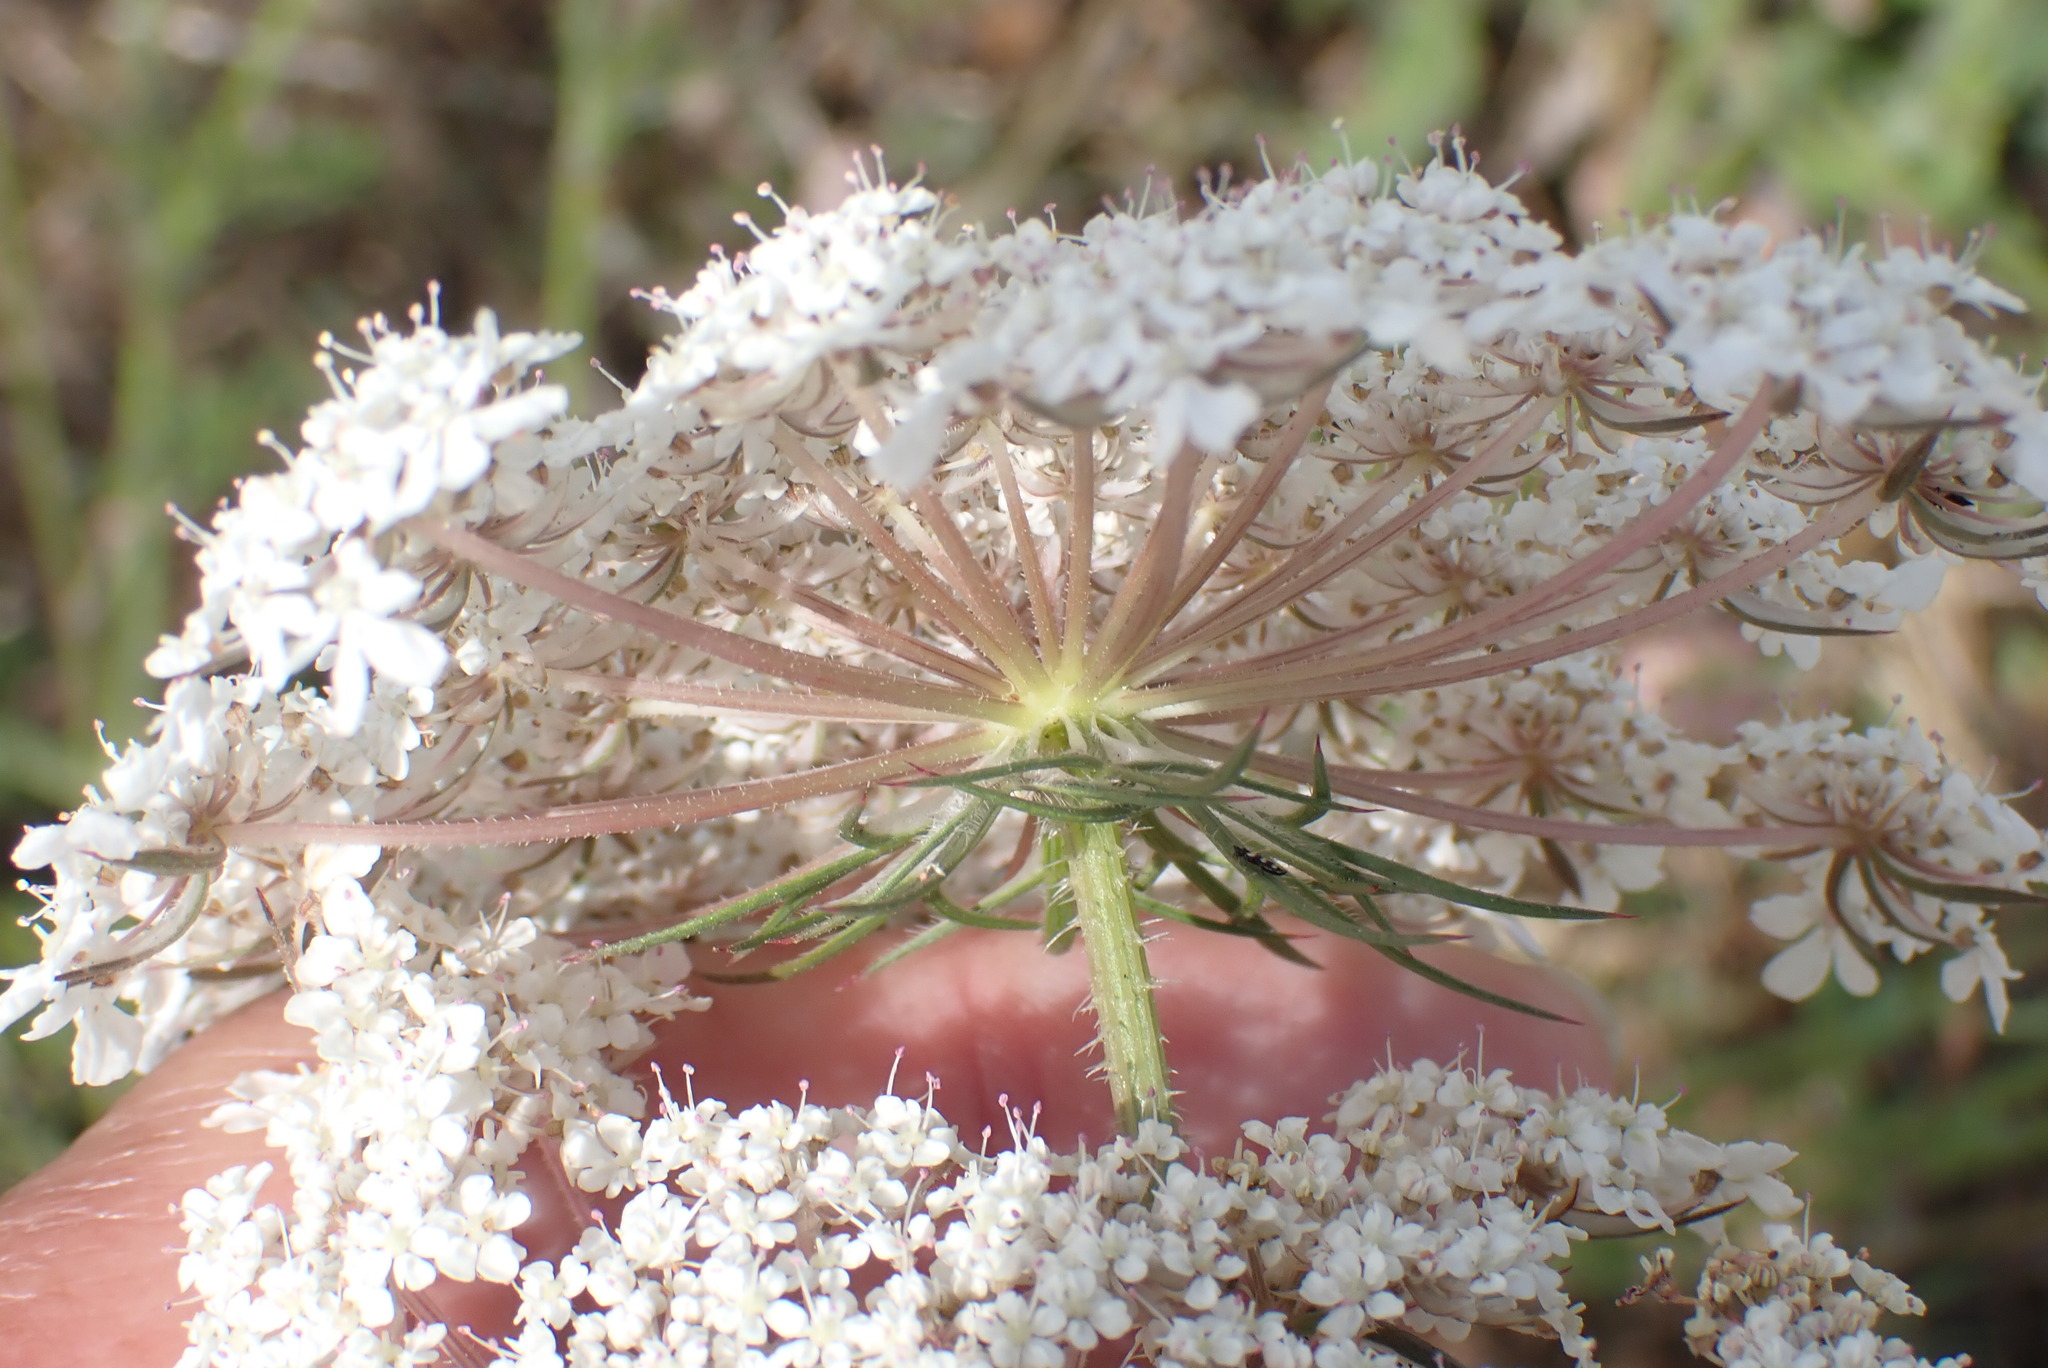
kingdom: Plantae
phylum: Tracheophyta
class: Magnoliopsida
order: Apiales
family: Apiaceae
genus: Daucus
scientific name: Daucus carota
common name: Wild carrot
